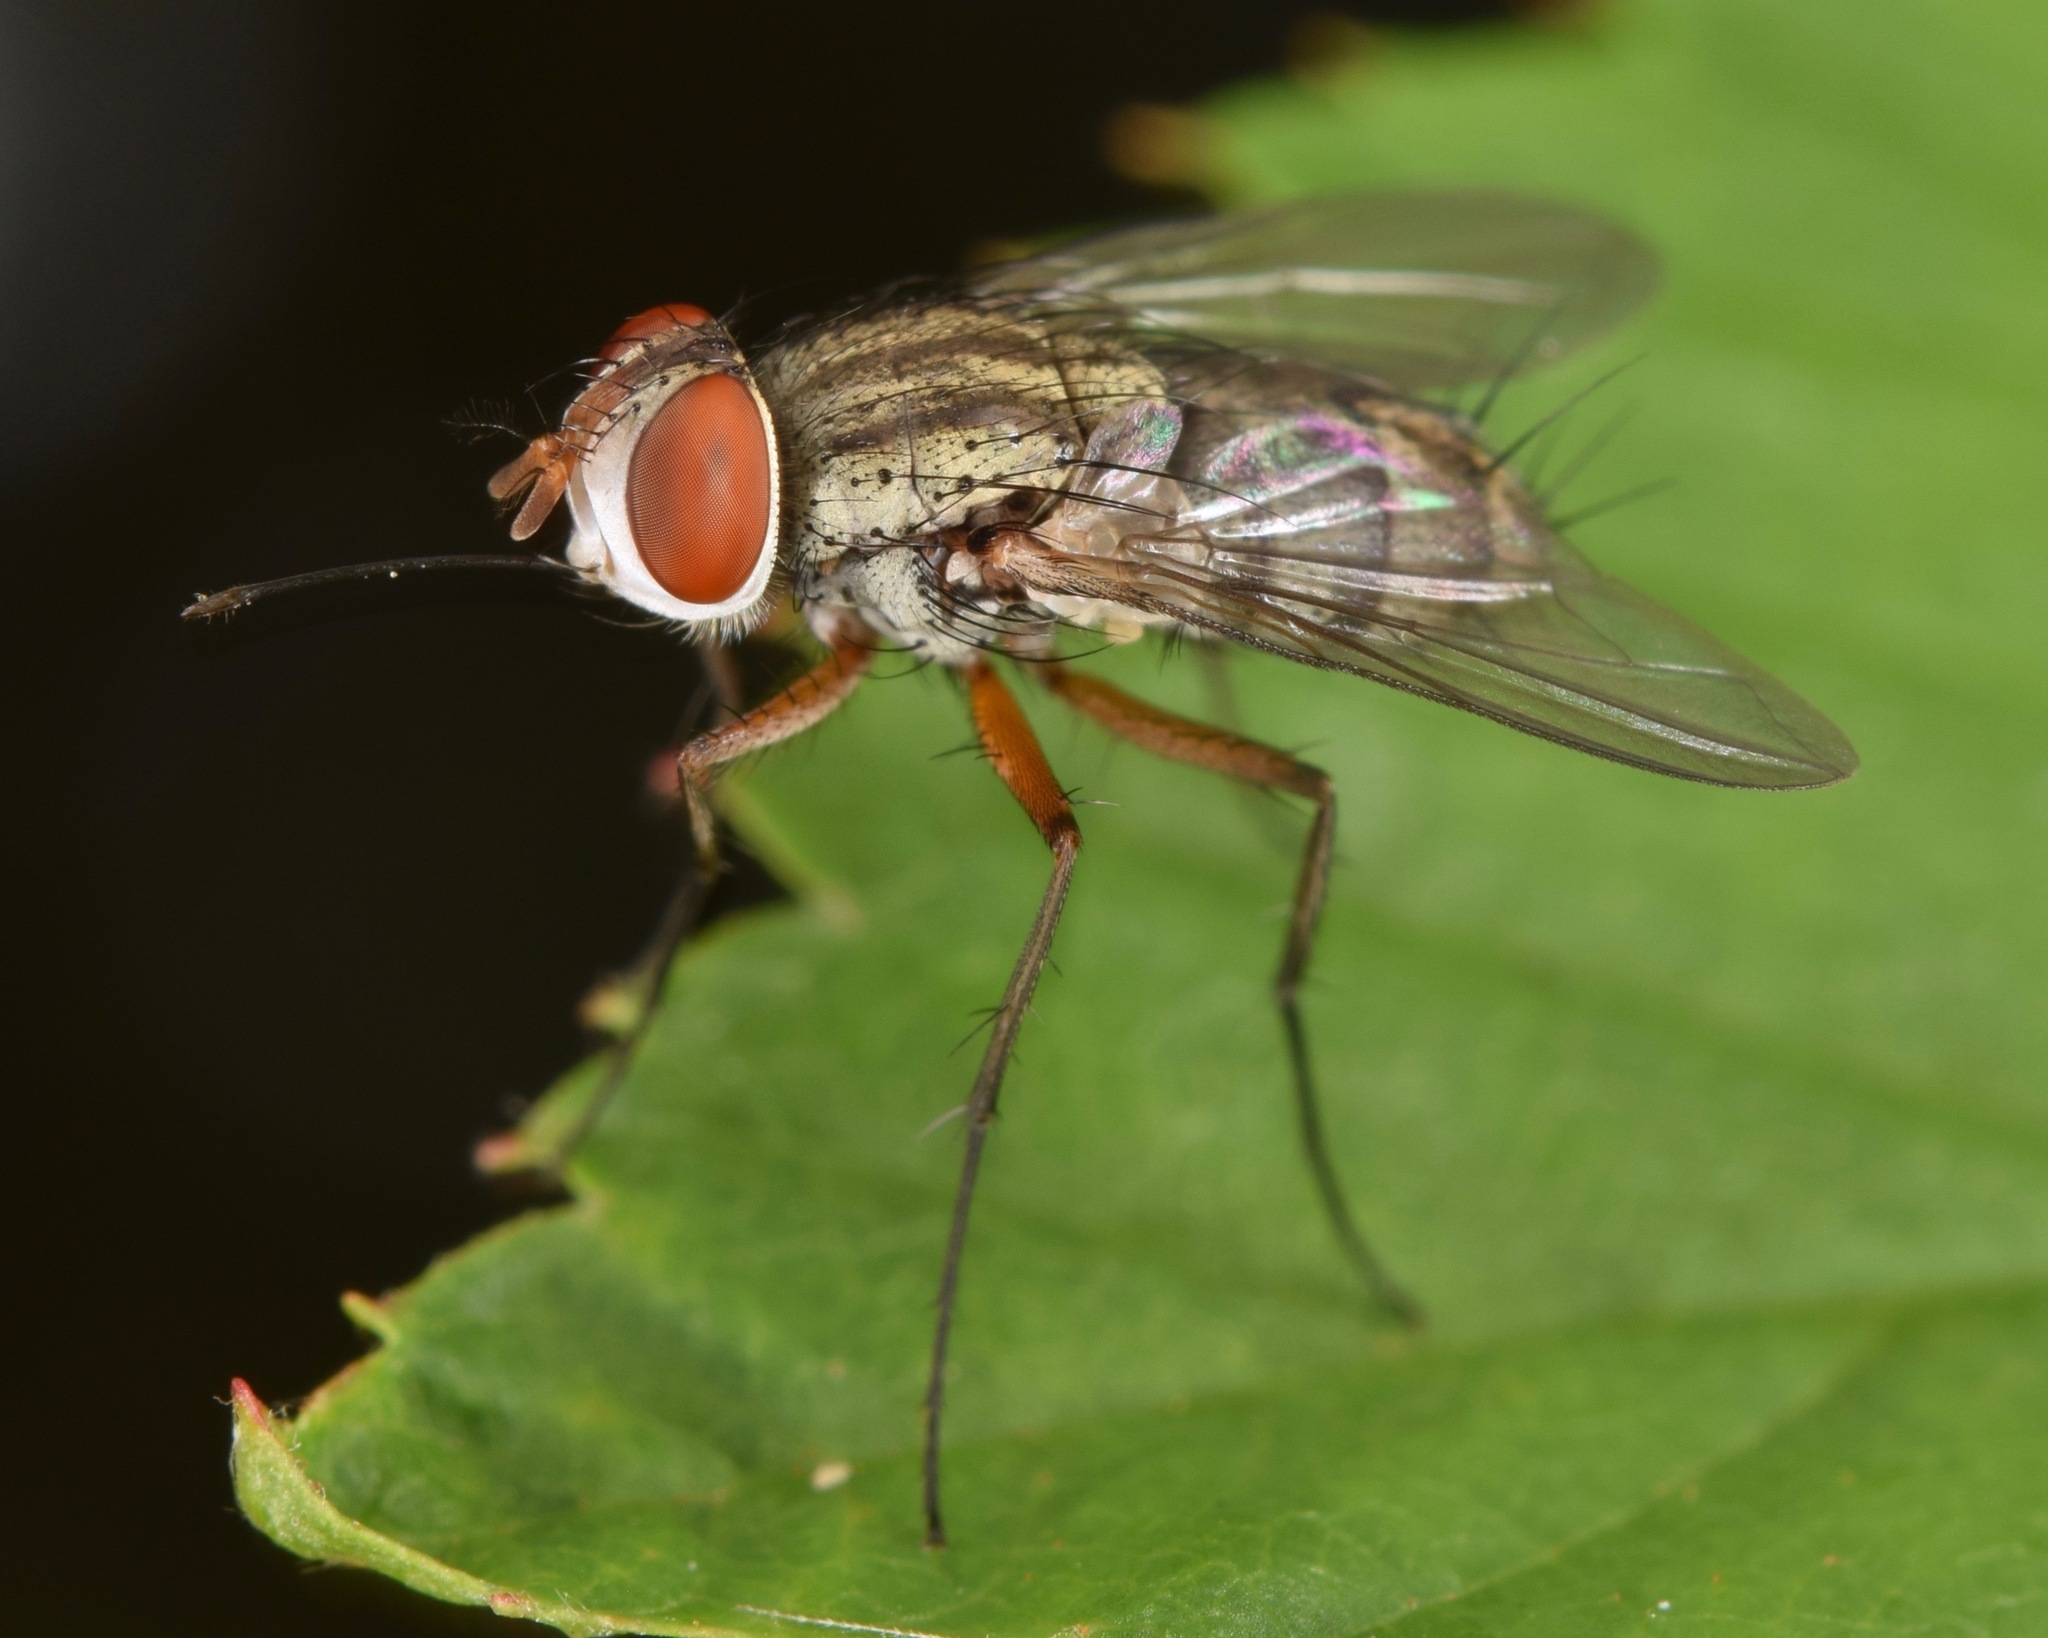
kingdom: Animalia
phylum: Arthropoda
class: Insecta
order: Diptera
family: Tachinidae
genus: Prosenoides
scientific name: Prosenoides flavipes
